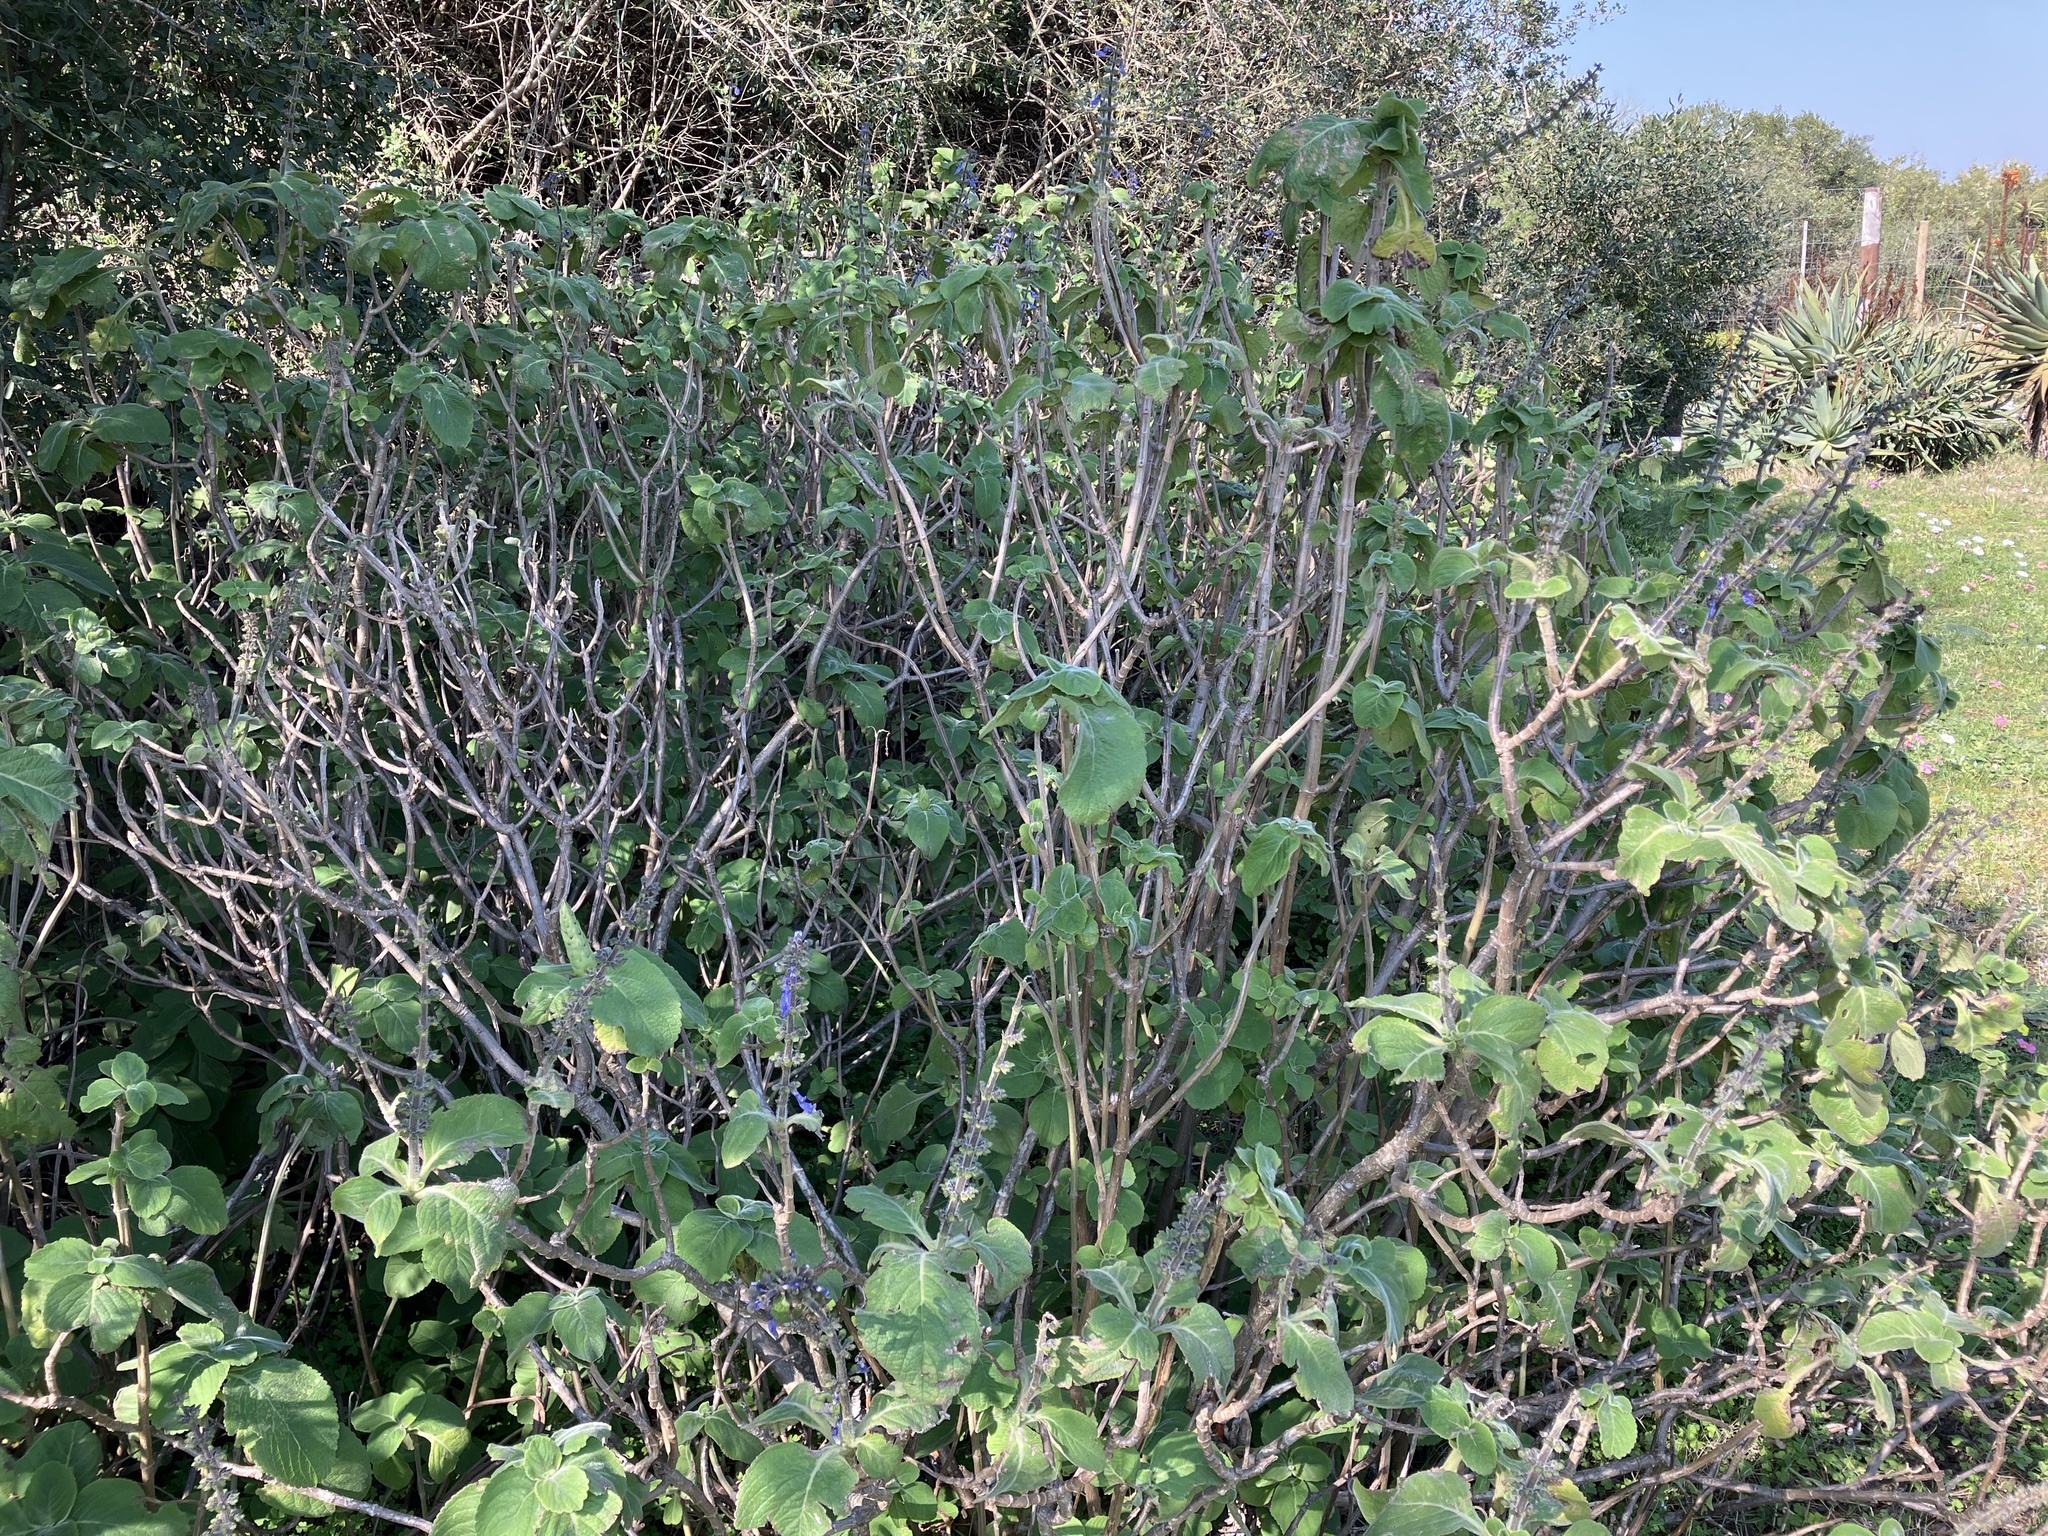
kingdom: Plantae
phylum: Tracheophyta
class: Magnoliopsida
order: Lamiales
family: Lamiaceae
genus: Coleus
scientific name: Coleus barbatus
